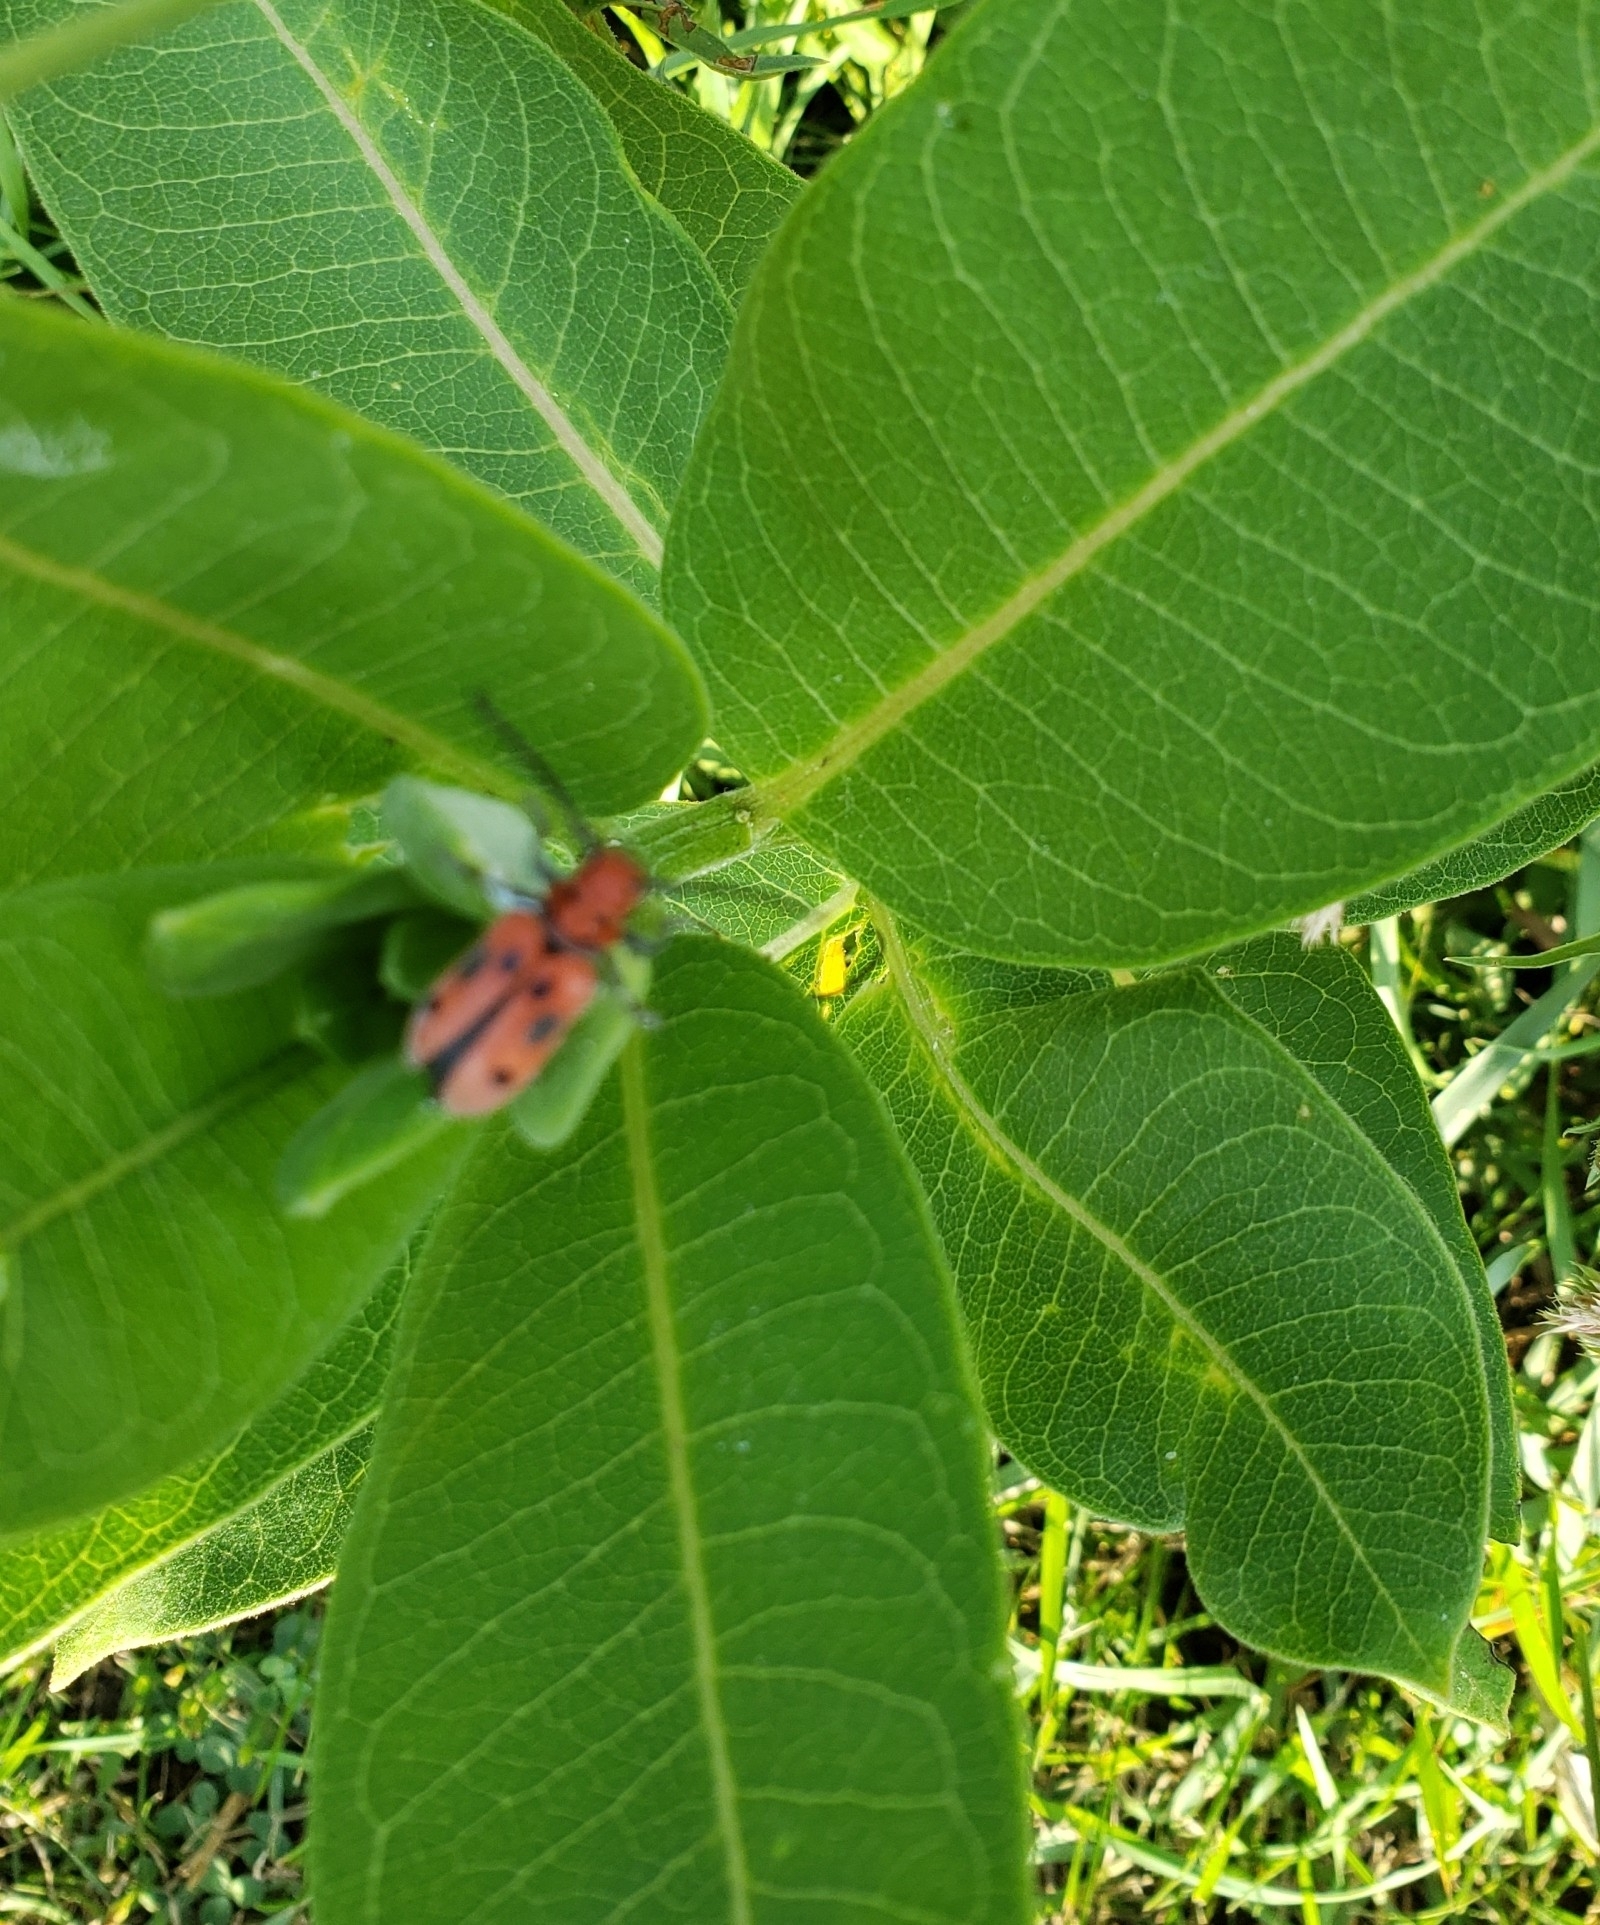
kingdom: Animalia
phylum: Arthropoda
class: Insecta
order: Coleoptera
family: Cerambycidae
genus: Tetraopes
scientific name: Tetraopes tetrophthalmus
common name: Red milkweed beetle
